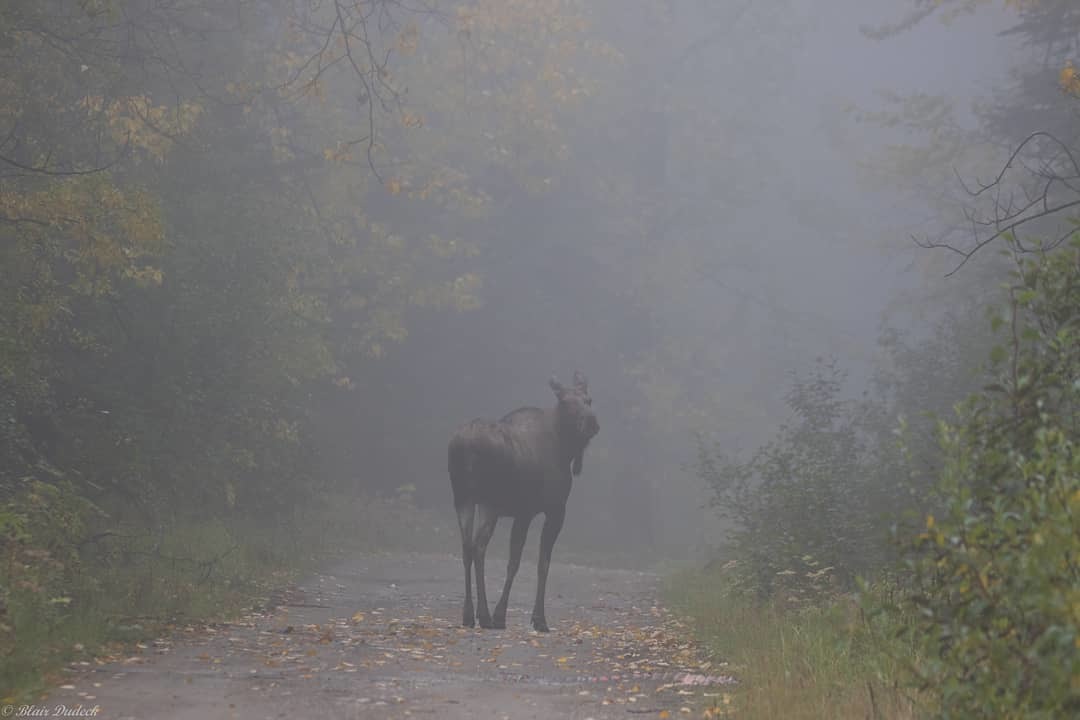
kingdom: Animalia
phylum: Chordata
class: Mammalia
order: Artiodactyla
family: Cervidae
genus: Alces
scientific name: Alces alces
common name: Moose
